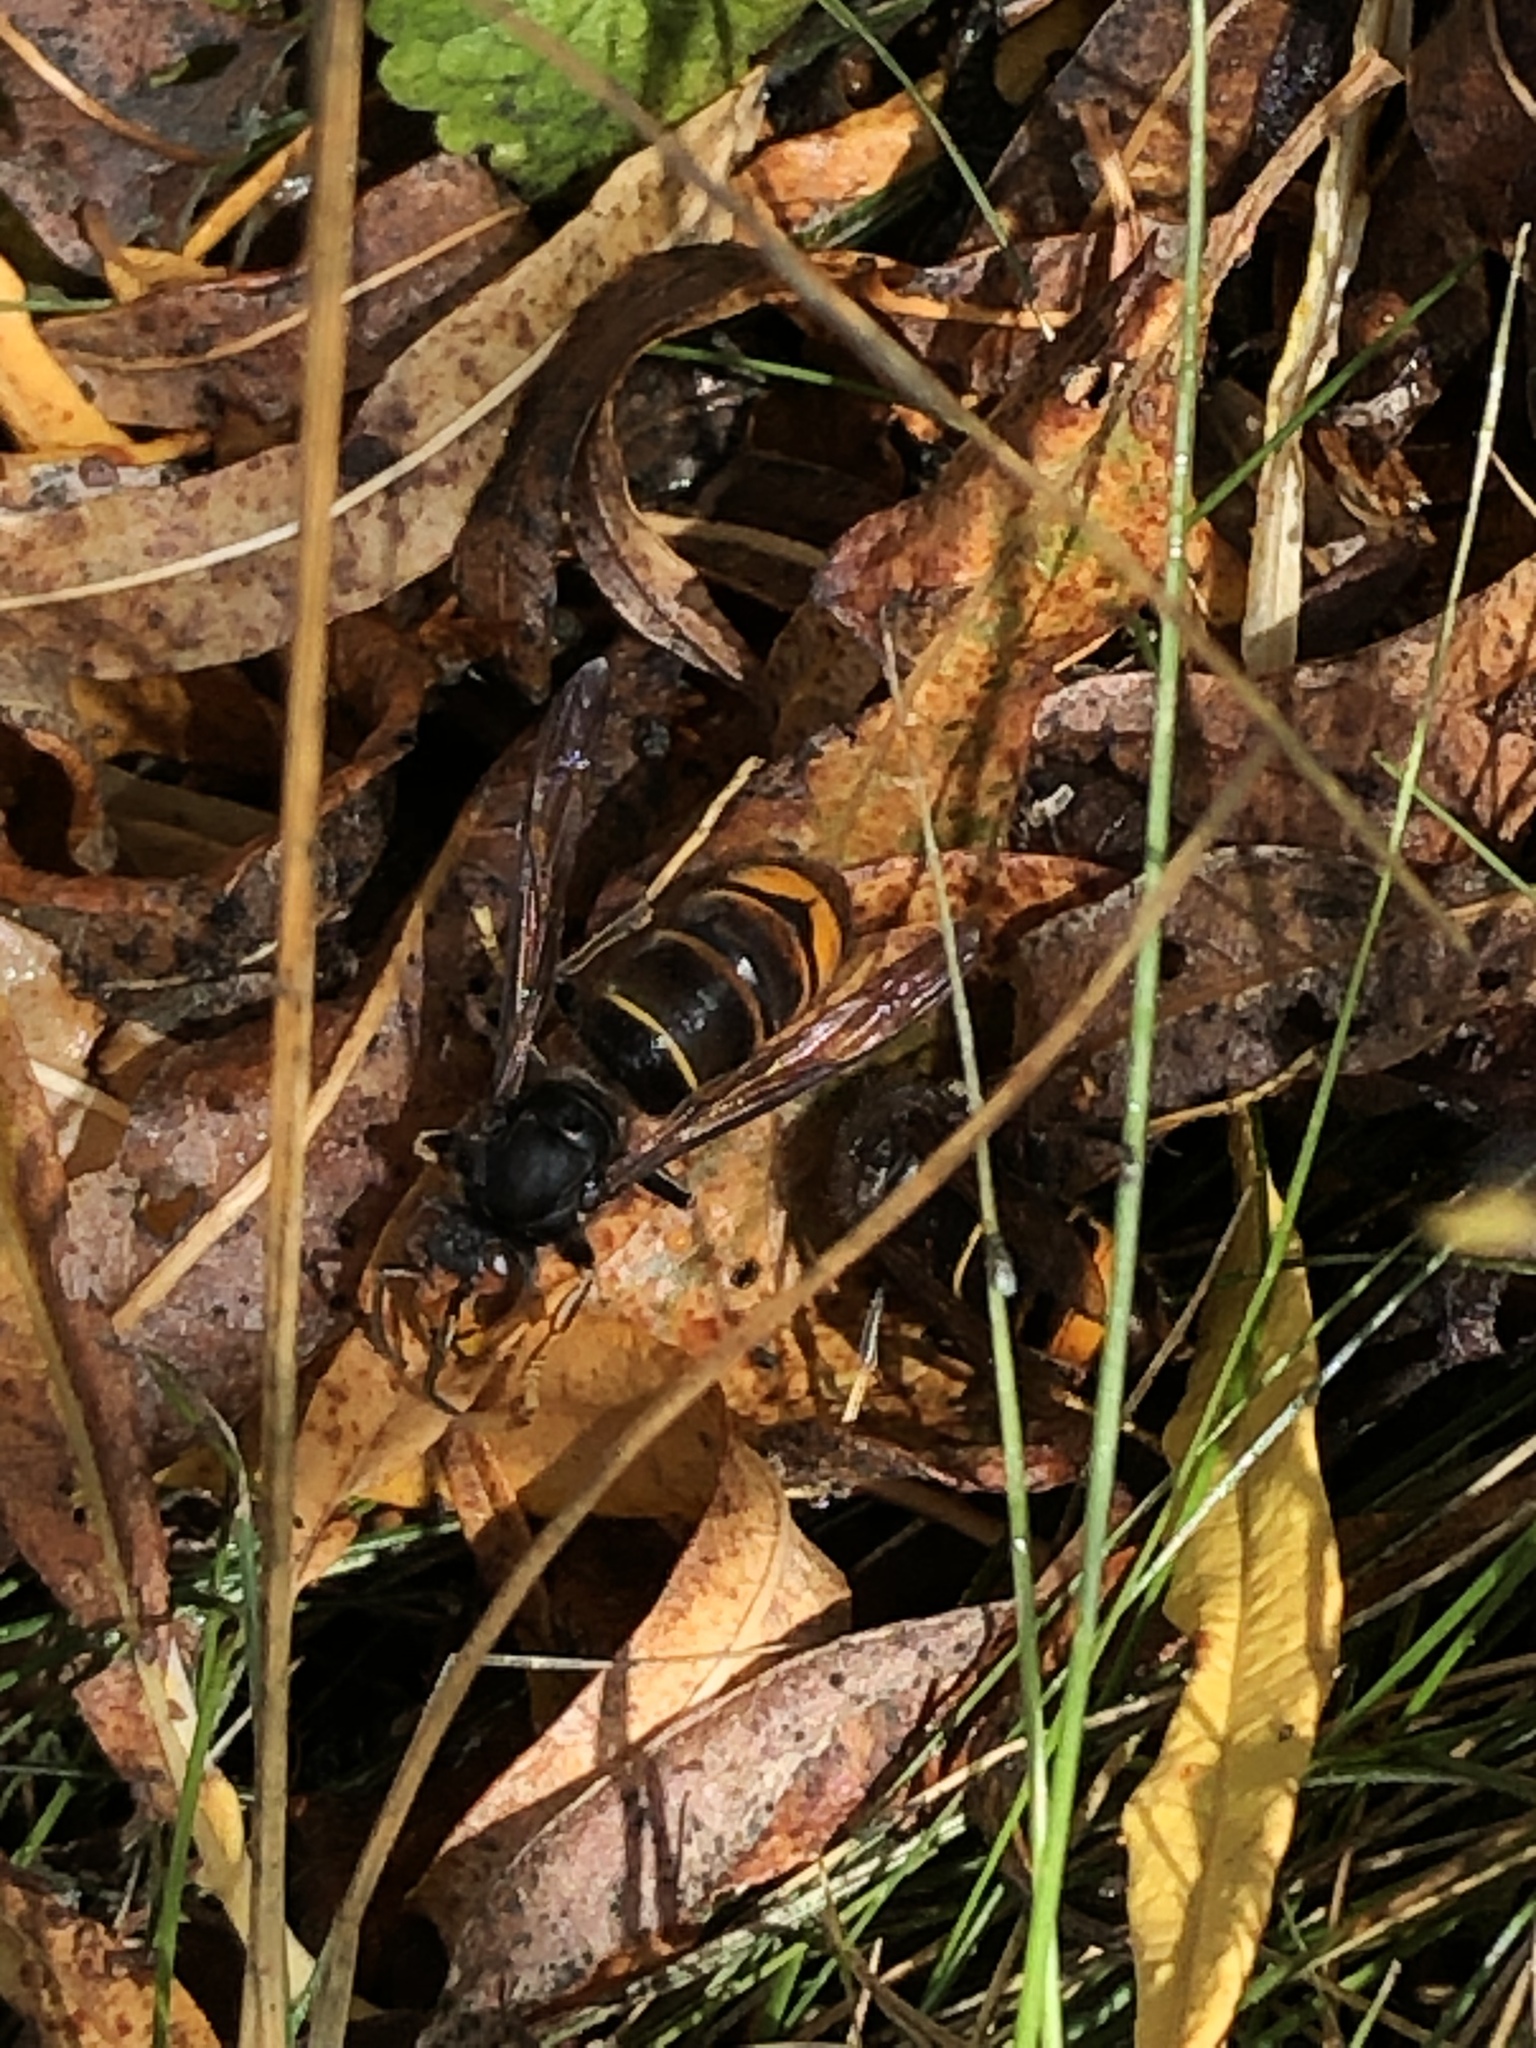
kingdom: Animalia
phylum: Arthropoda
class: Insecta
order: Hymenoptera
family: Vespidae
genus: Vespa
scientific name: Vespa velutina
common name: Asian hornet
